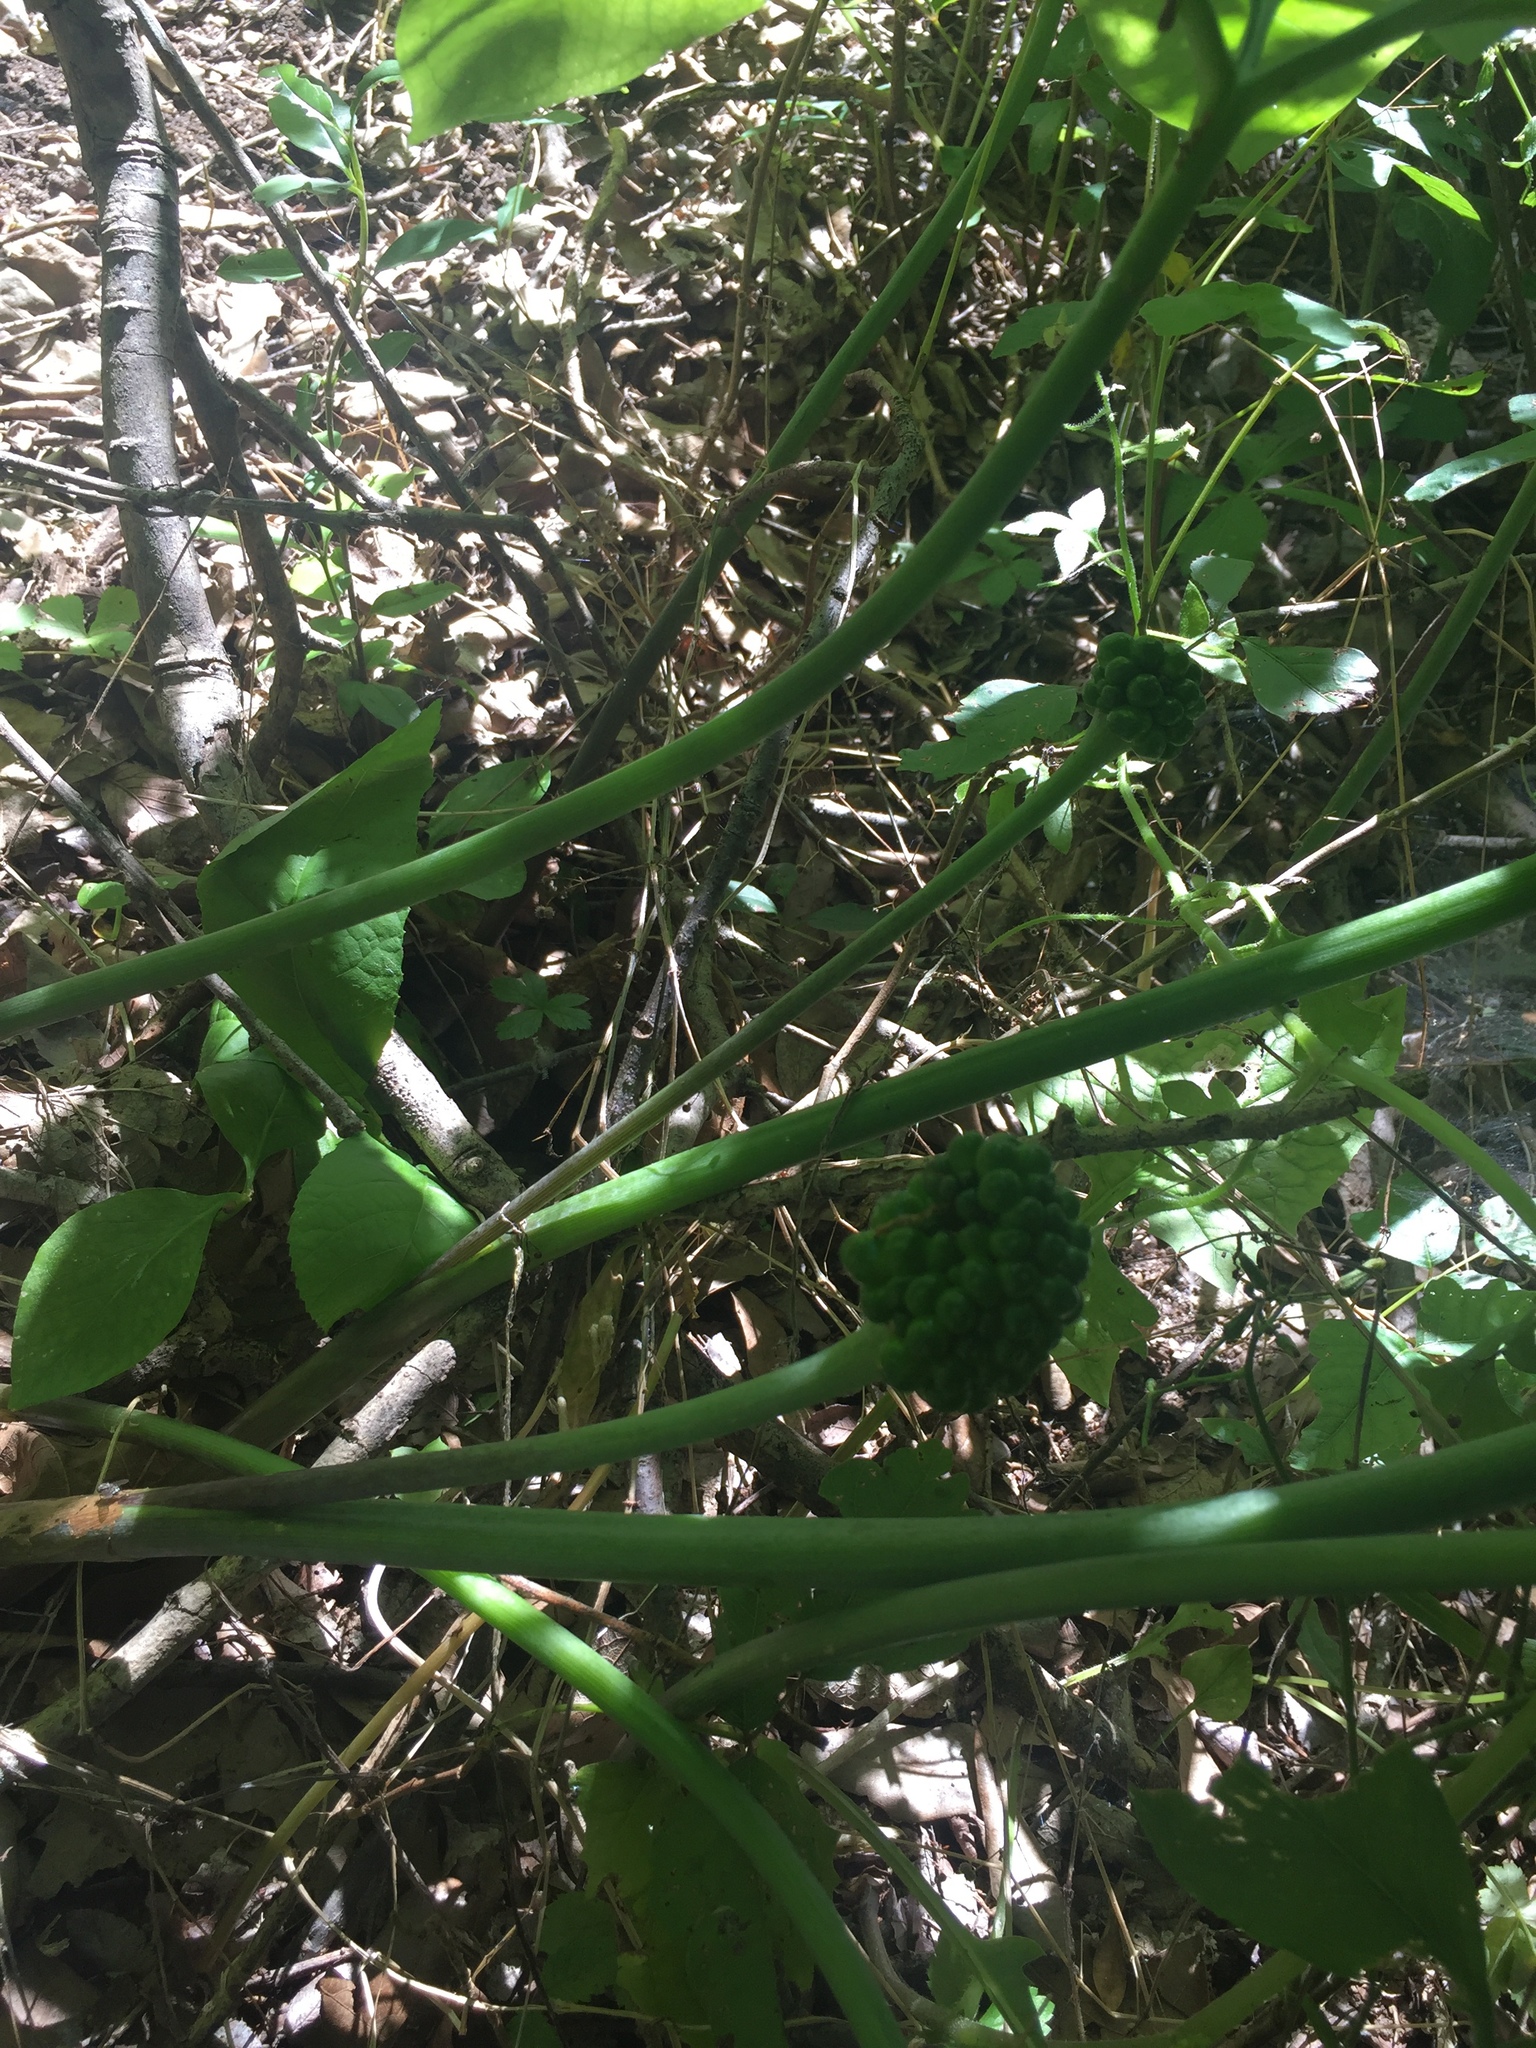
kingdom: Plantae
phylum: Tracheophyta
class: Liliopsida
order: Alismatales
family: Araceae
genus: Arisaema
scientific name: Arisaema dracontium
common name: Dragon-arum
